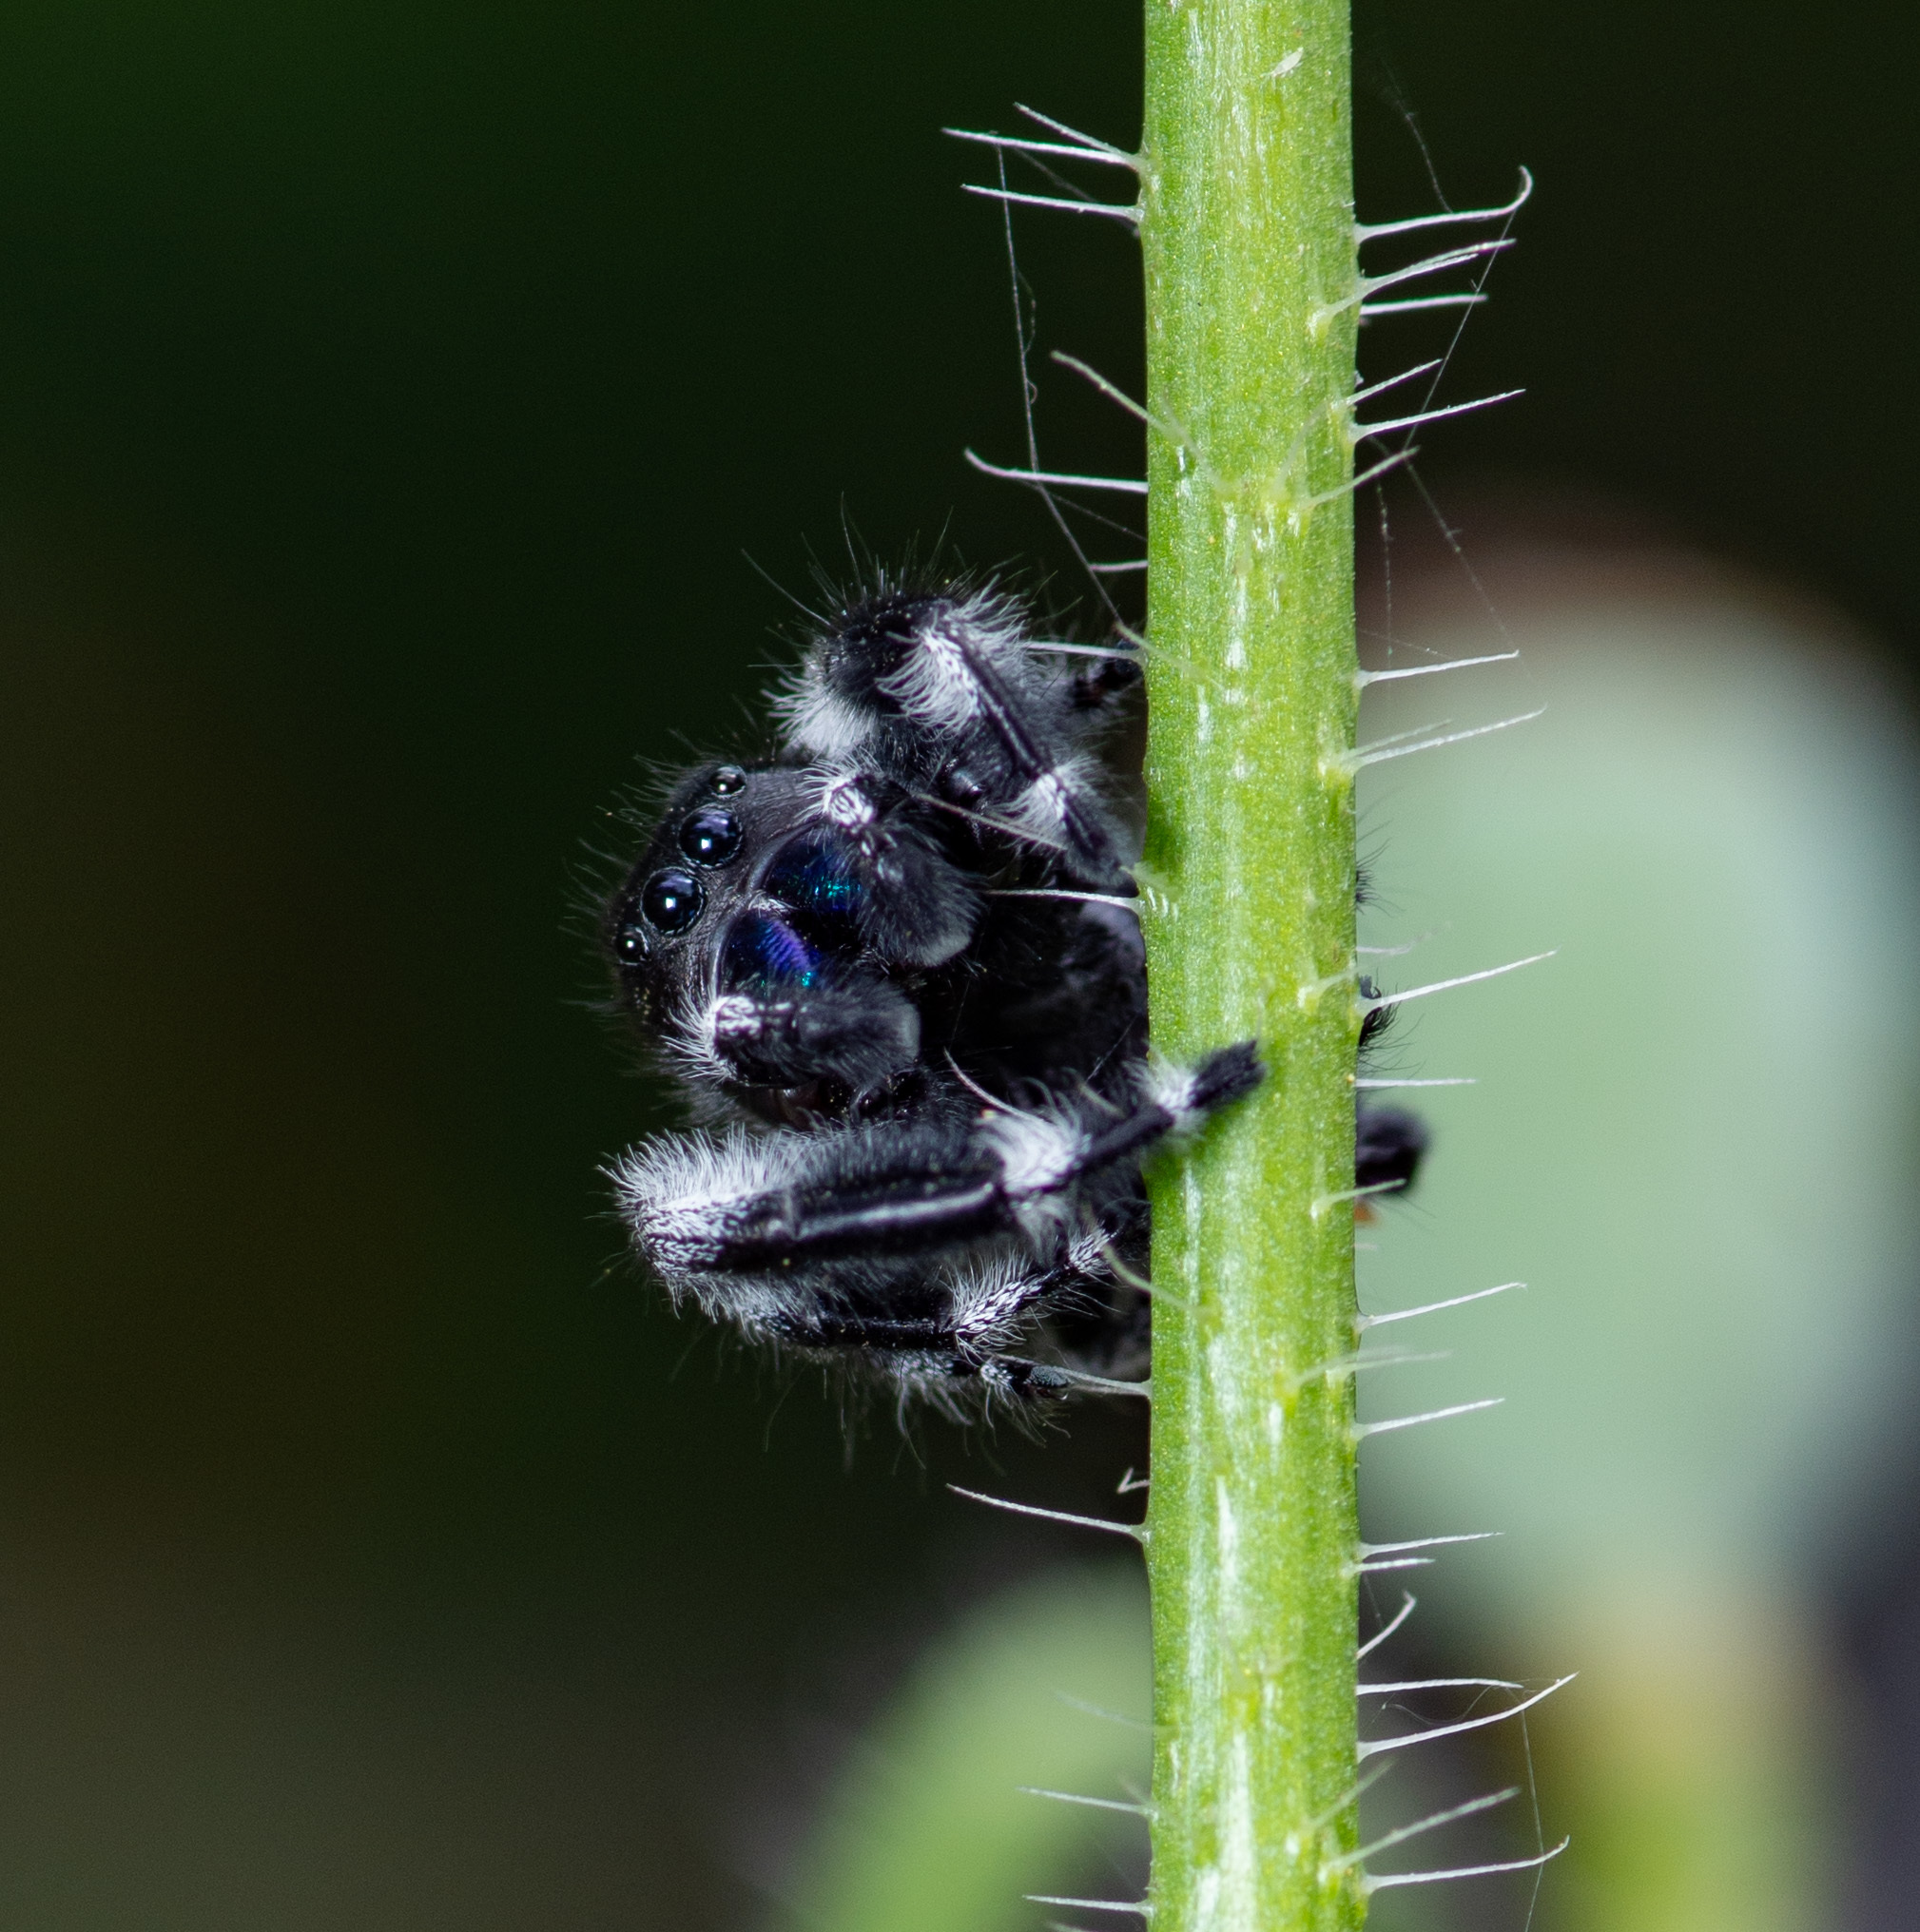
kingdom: Animalia
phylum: Arthropoda
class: Arachnida
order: Araneae
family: Salticidae
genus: Phidippus
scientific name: Phidippus audax
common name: Bold jumper
